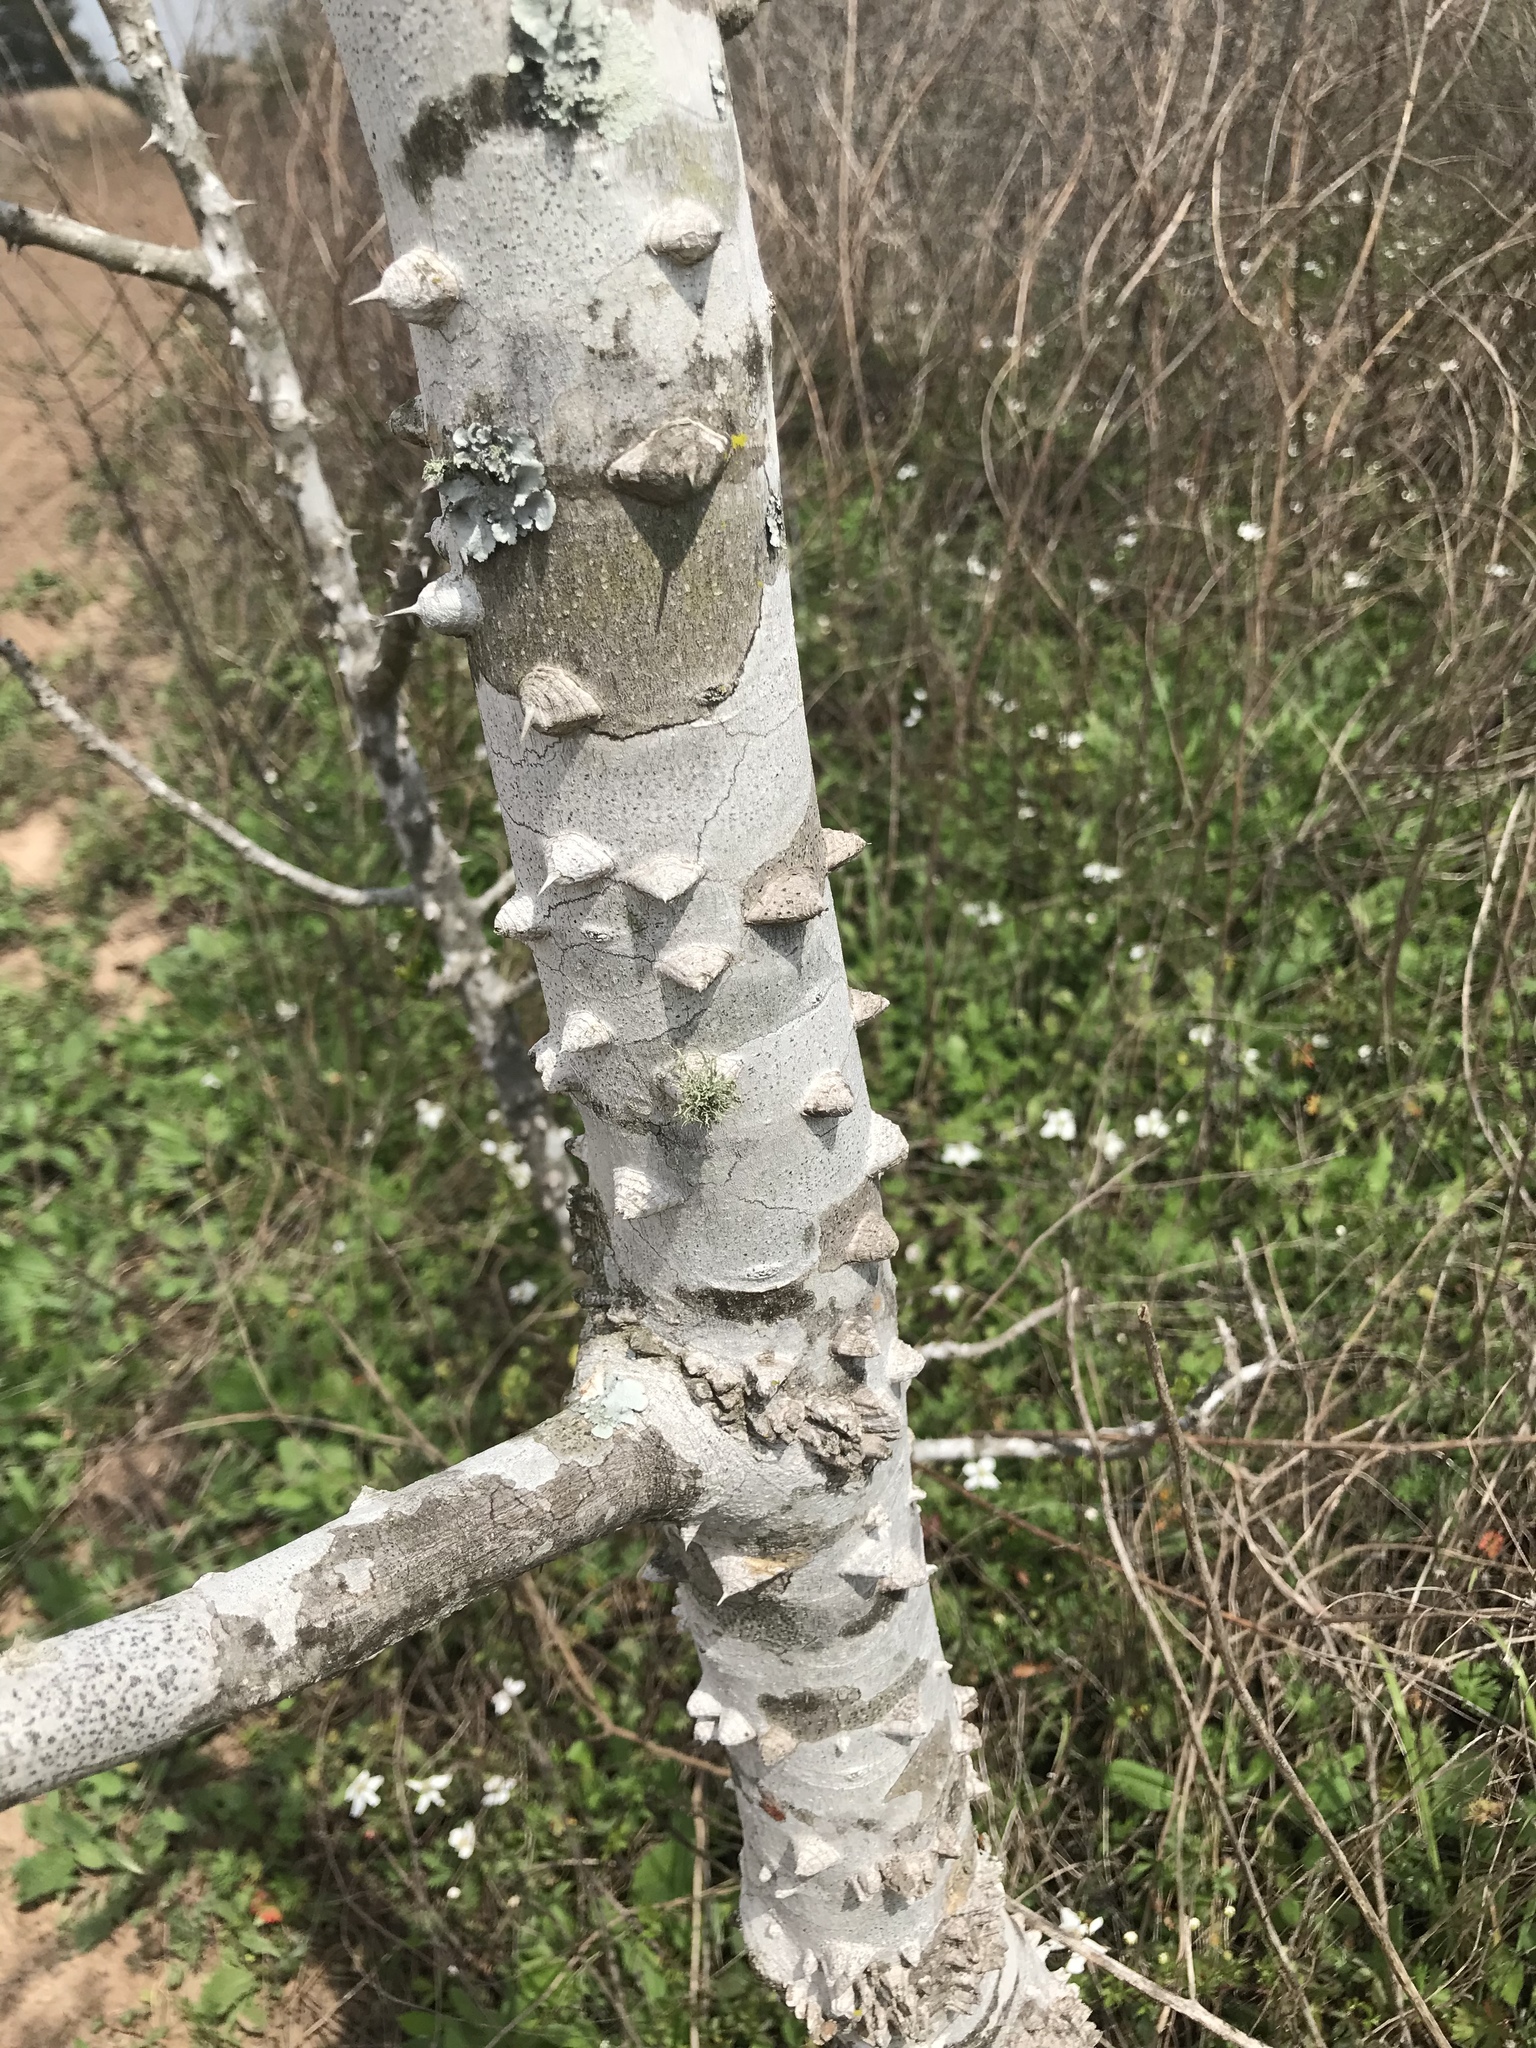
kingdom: Plantae
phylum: Tracheophyta
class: Magnoliopsida
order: Sapindales
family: Rutaceae
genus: Zanthoxylum
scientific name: Zanthoxylum clava-herculis
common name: Hercules'-club
